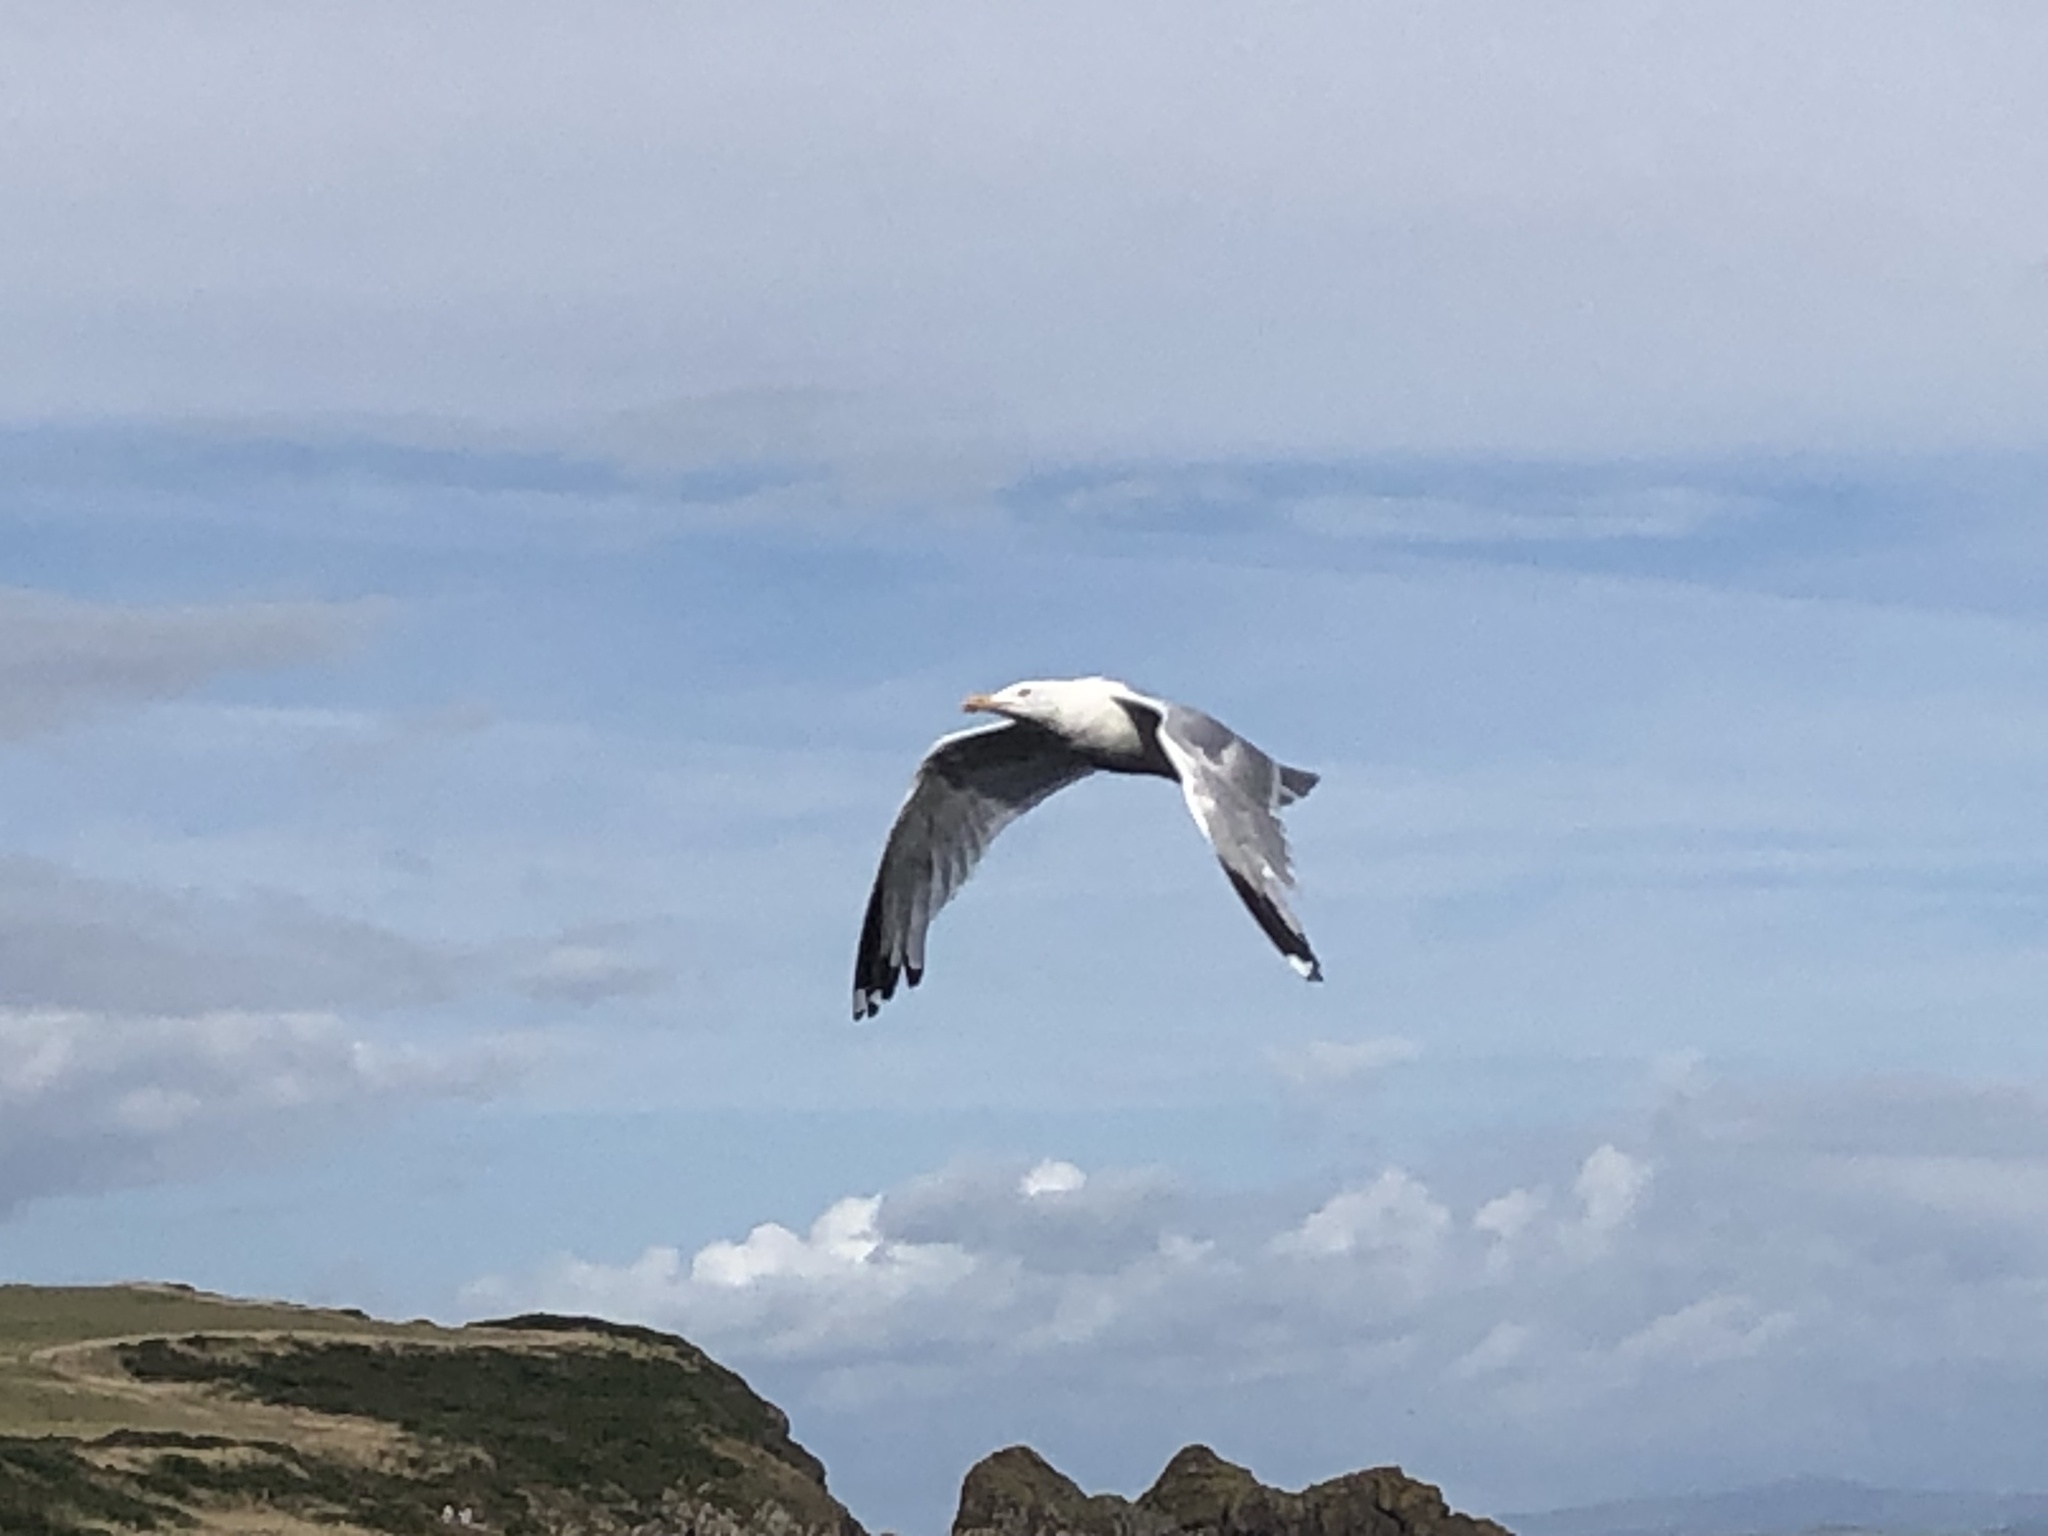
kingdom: Animalia
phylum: Chordata
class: Aves
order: Charadriiformes
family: Laridae
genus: Larus
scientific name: Larus argentatus
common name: Herring gull
